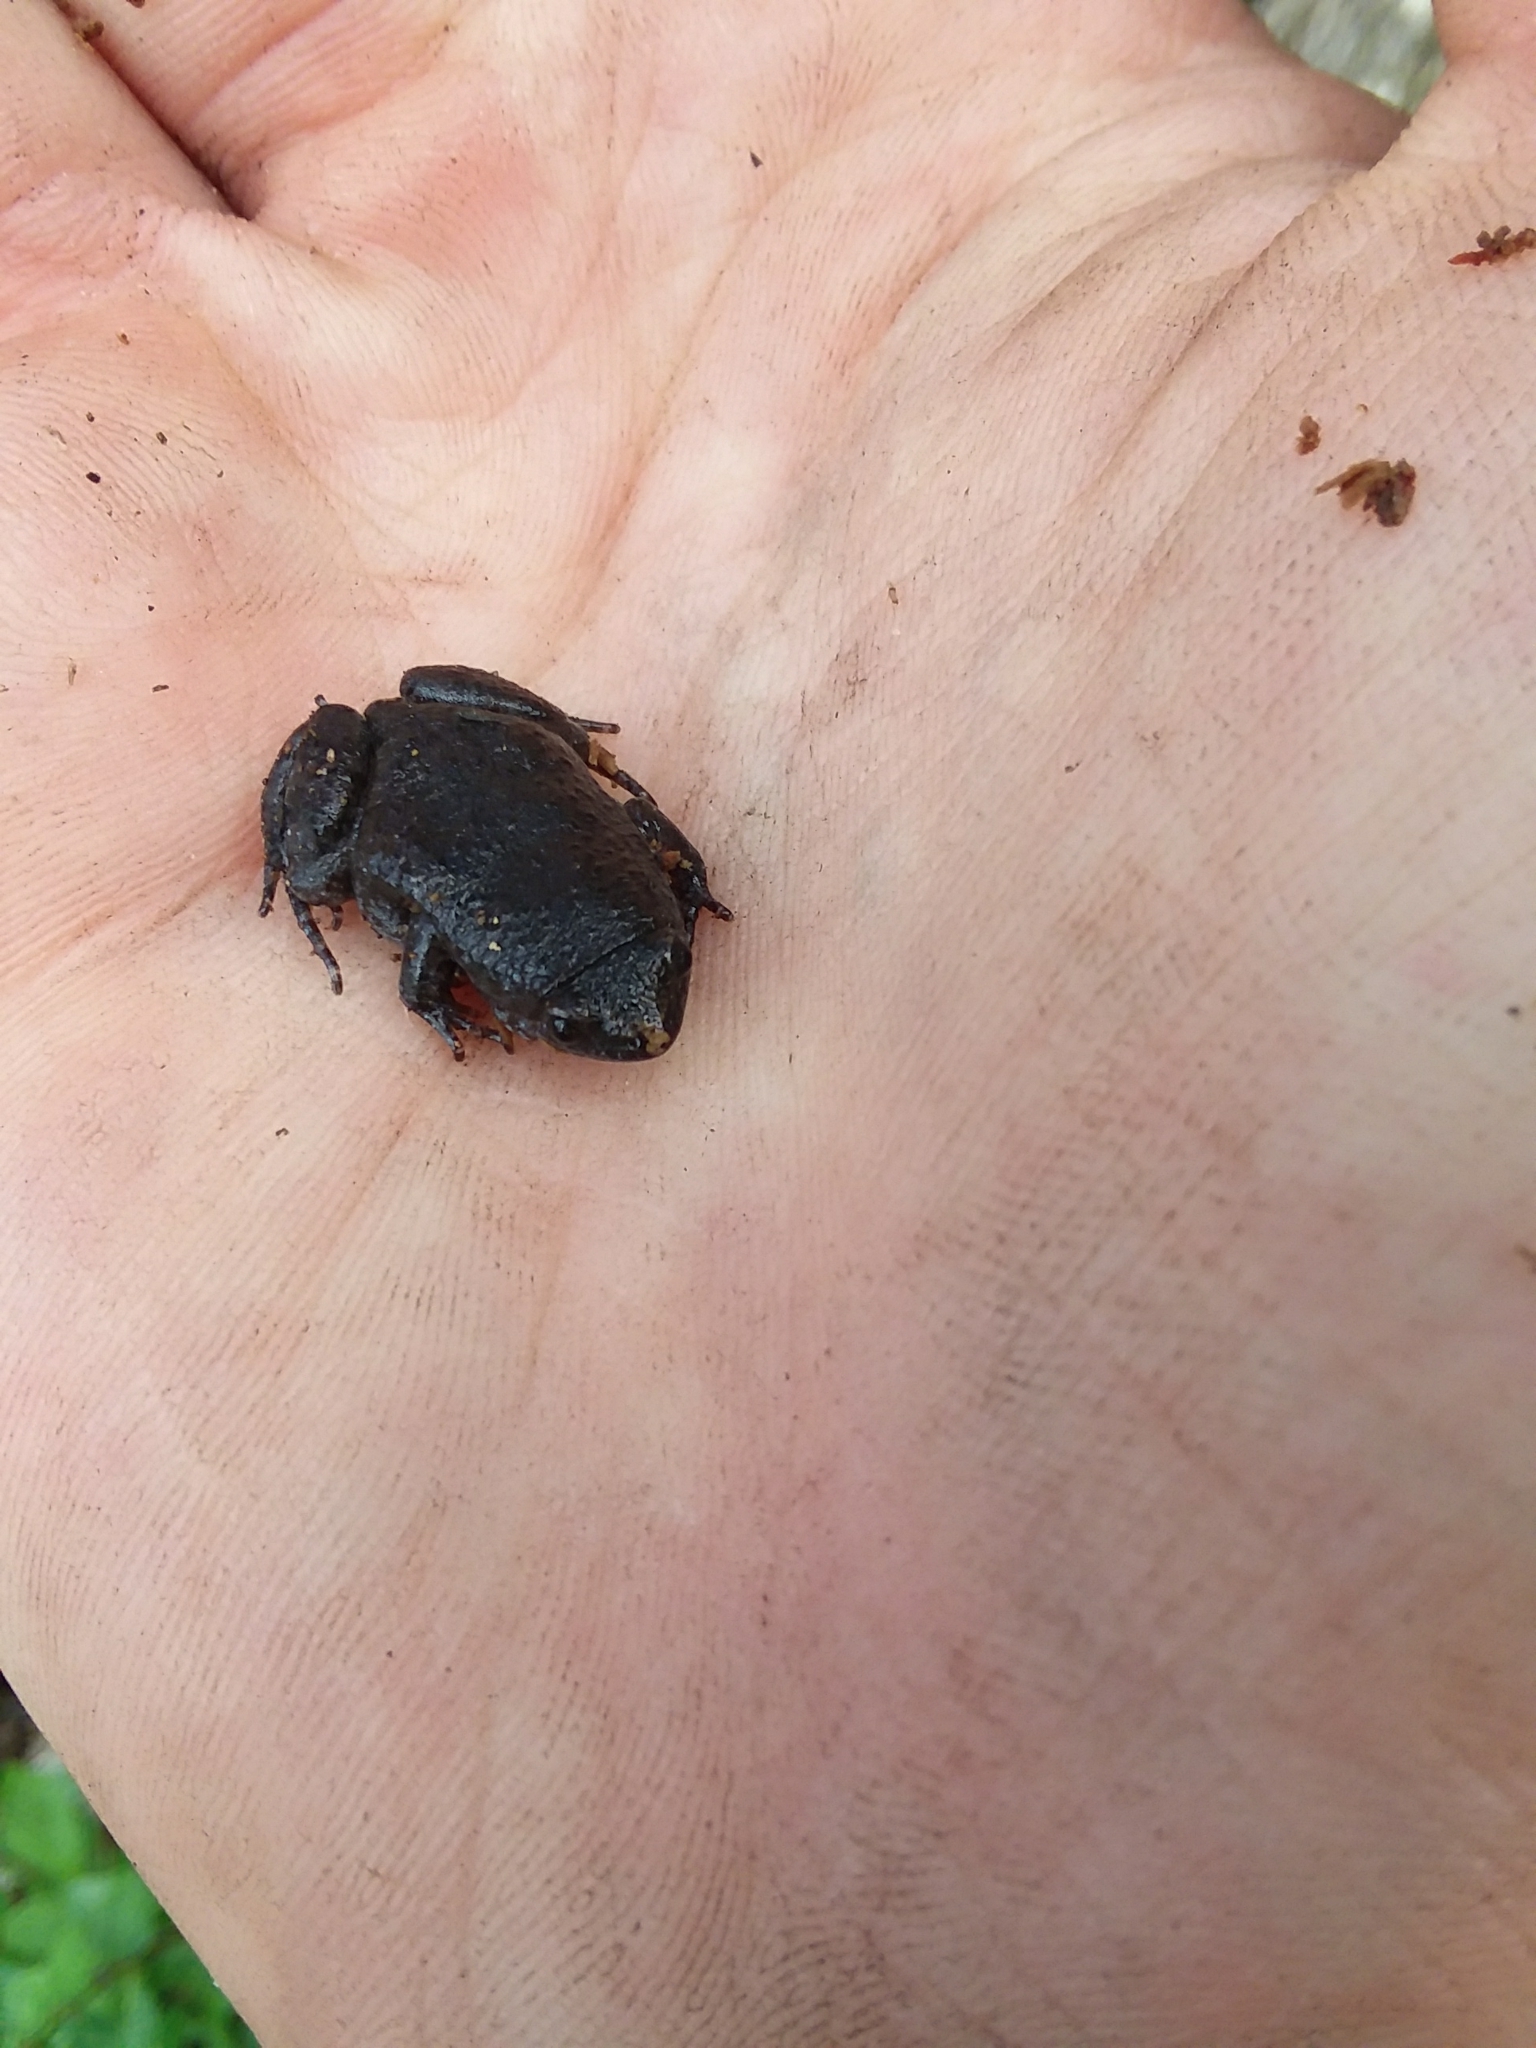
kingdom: Animalia
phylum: Chordata
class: Amphibia
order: Anura
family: Microhylidae
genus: Gastrophryne
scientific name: Gastrophryne carolinensis
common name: Eastern narrowmouth toad
